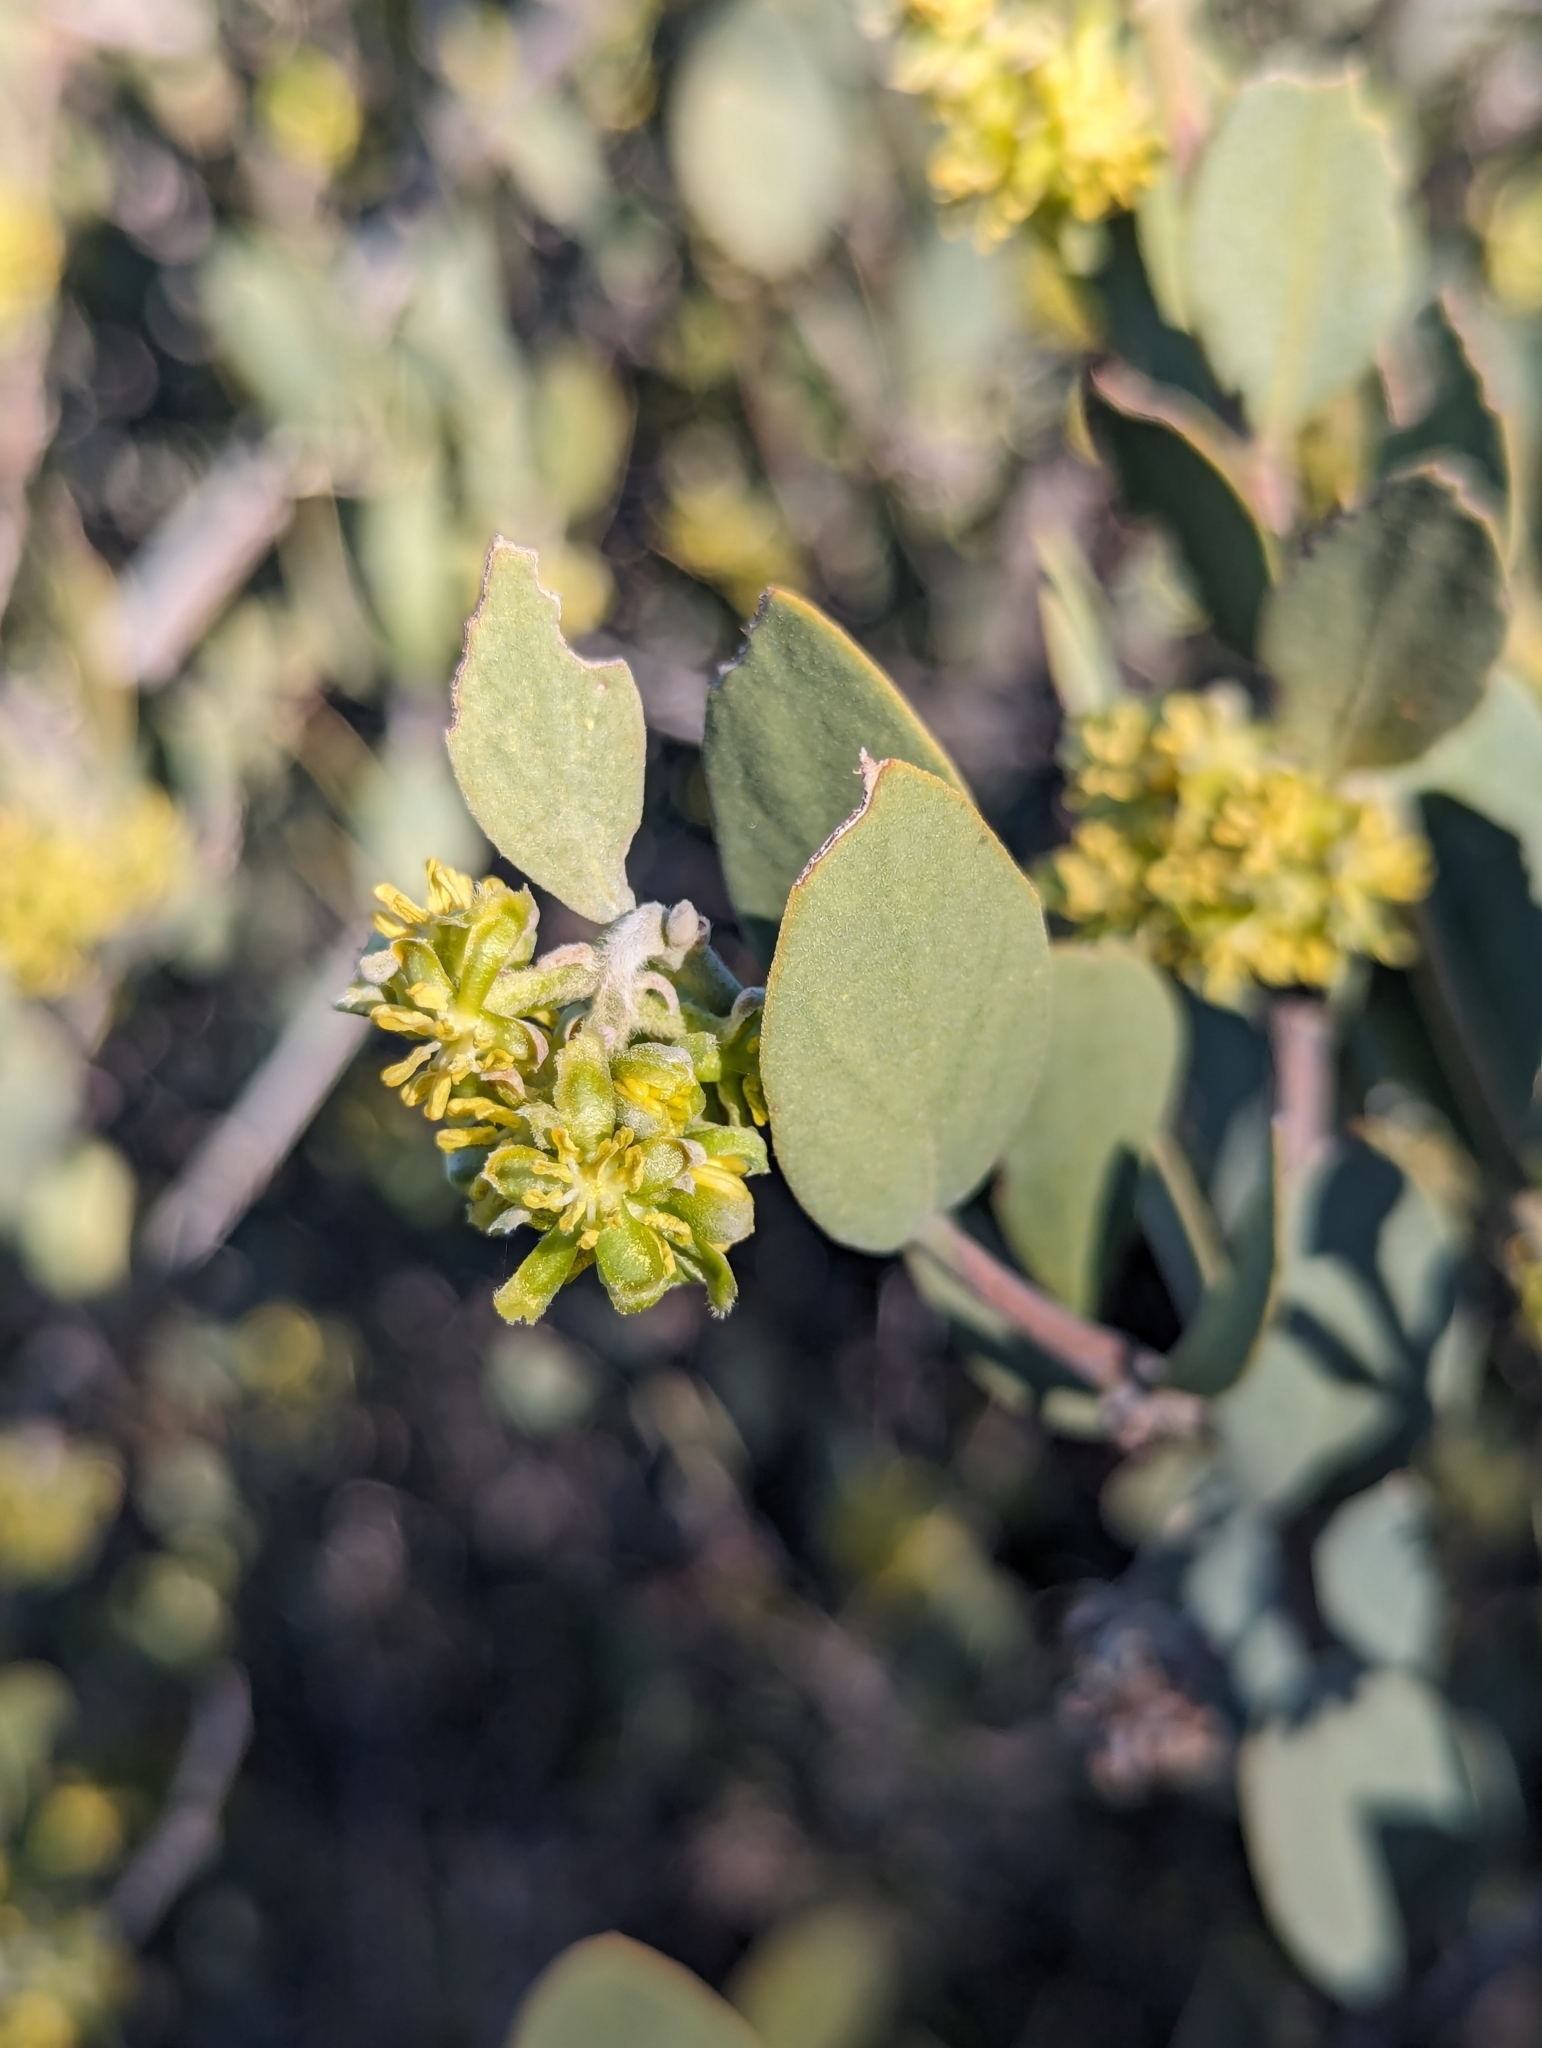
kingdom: Plantae
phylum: Tracheophyta
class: Magnoliopsida
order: Caryophyllales
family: Simmondsiaceae
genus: Simmondsia
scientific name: Simmondsia chinensis
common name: Jojoba
